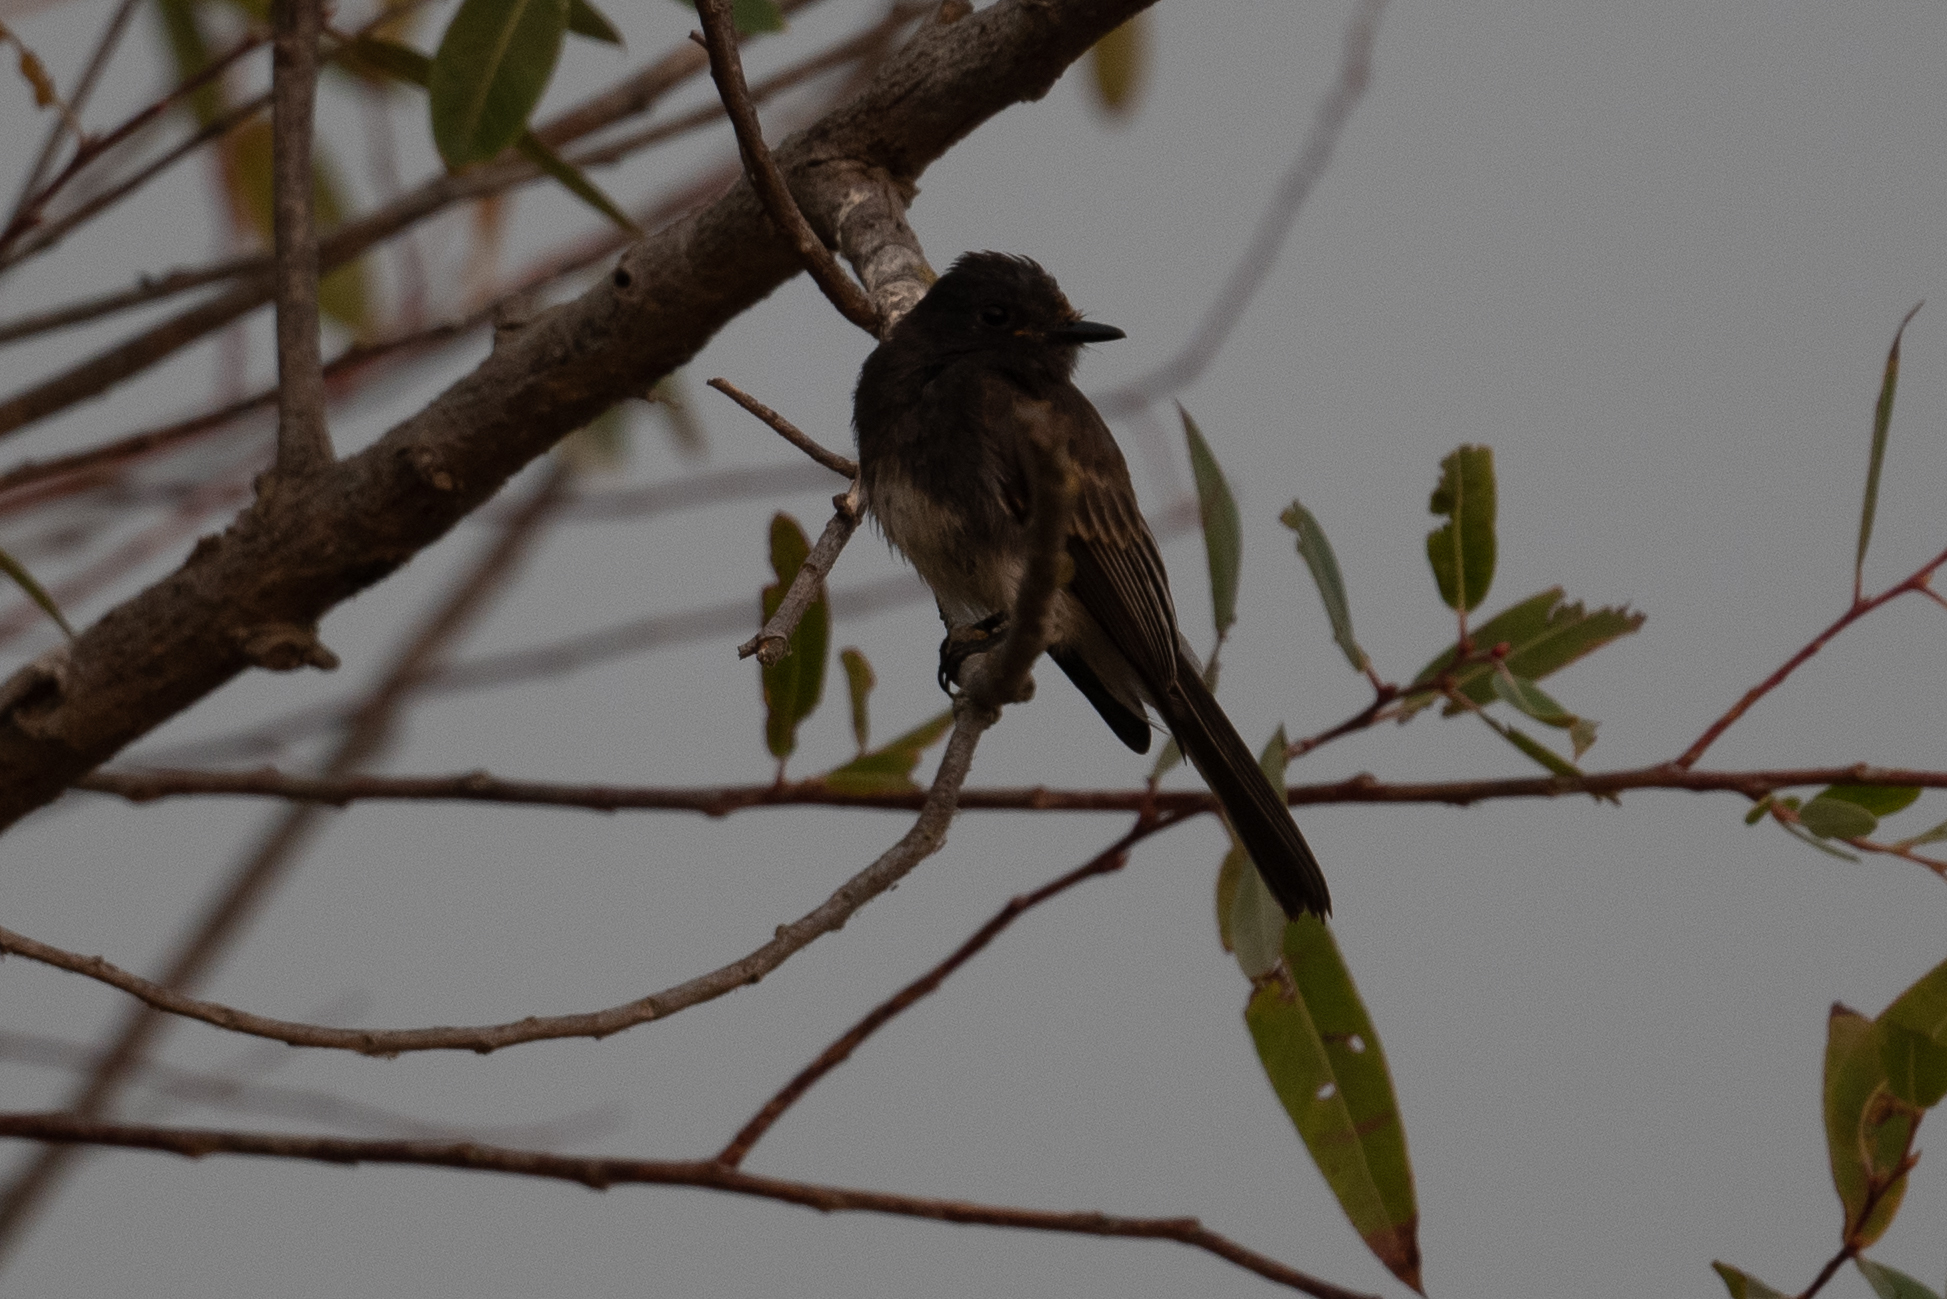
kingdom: Animalia
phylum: Chordata
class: Aves
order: Passeriformes
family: Tyrannidae
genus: Sayornis
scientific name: Sayornis nigricans
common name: Black phoebe
